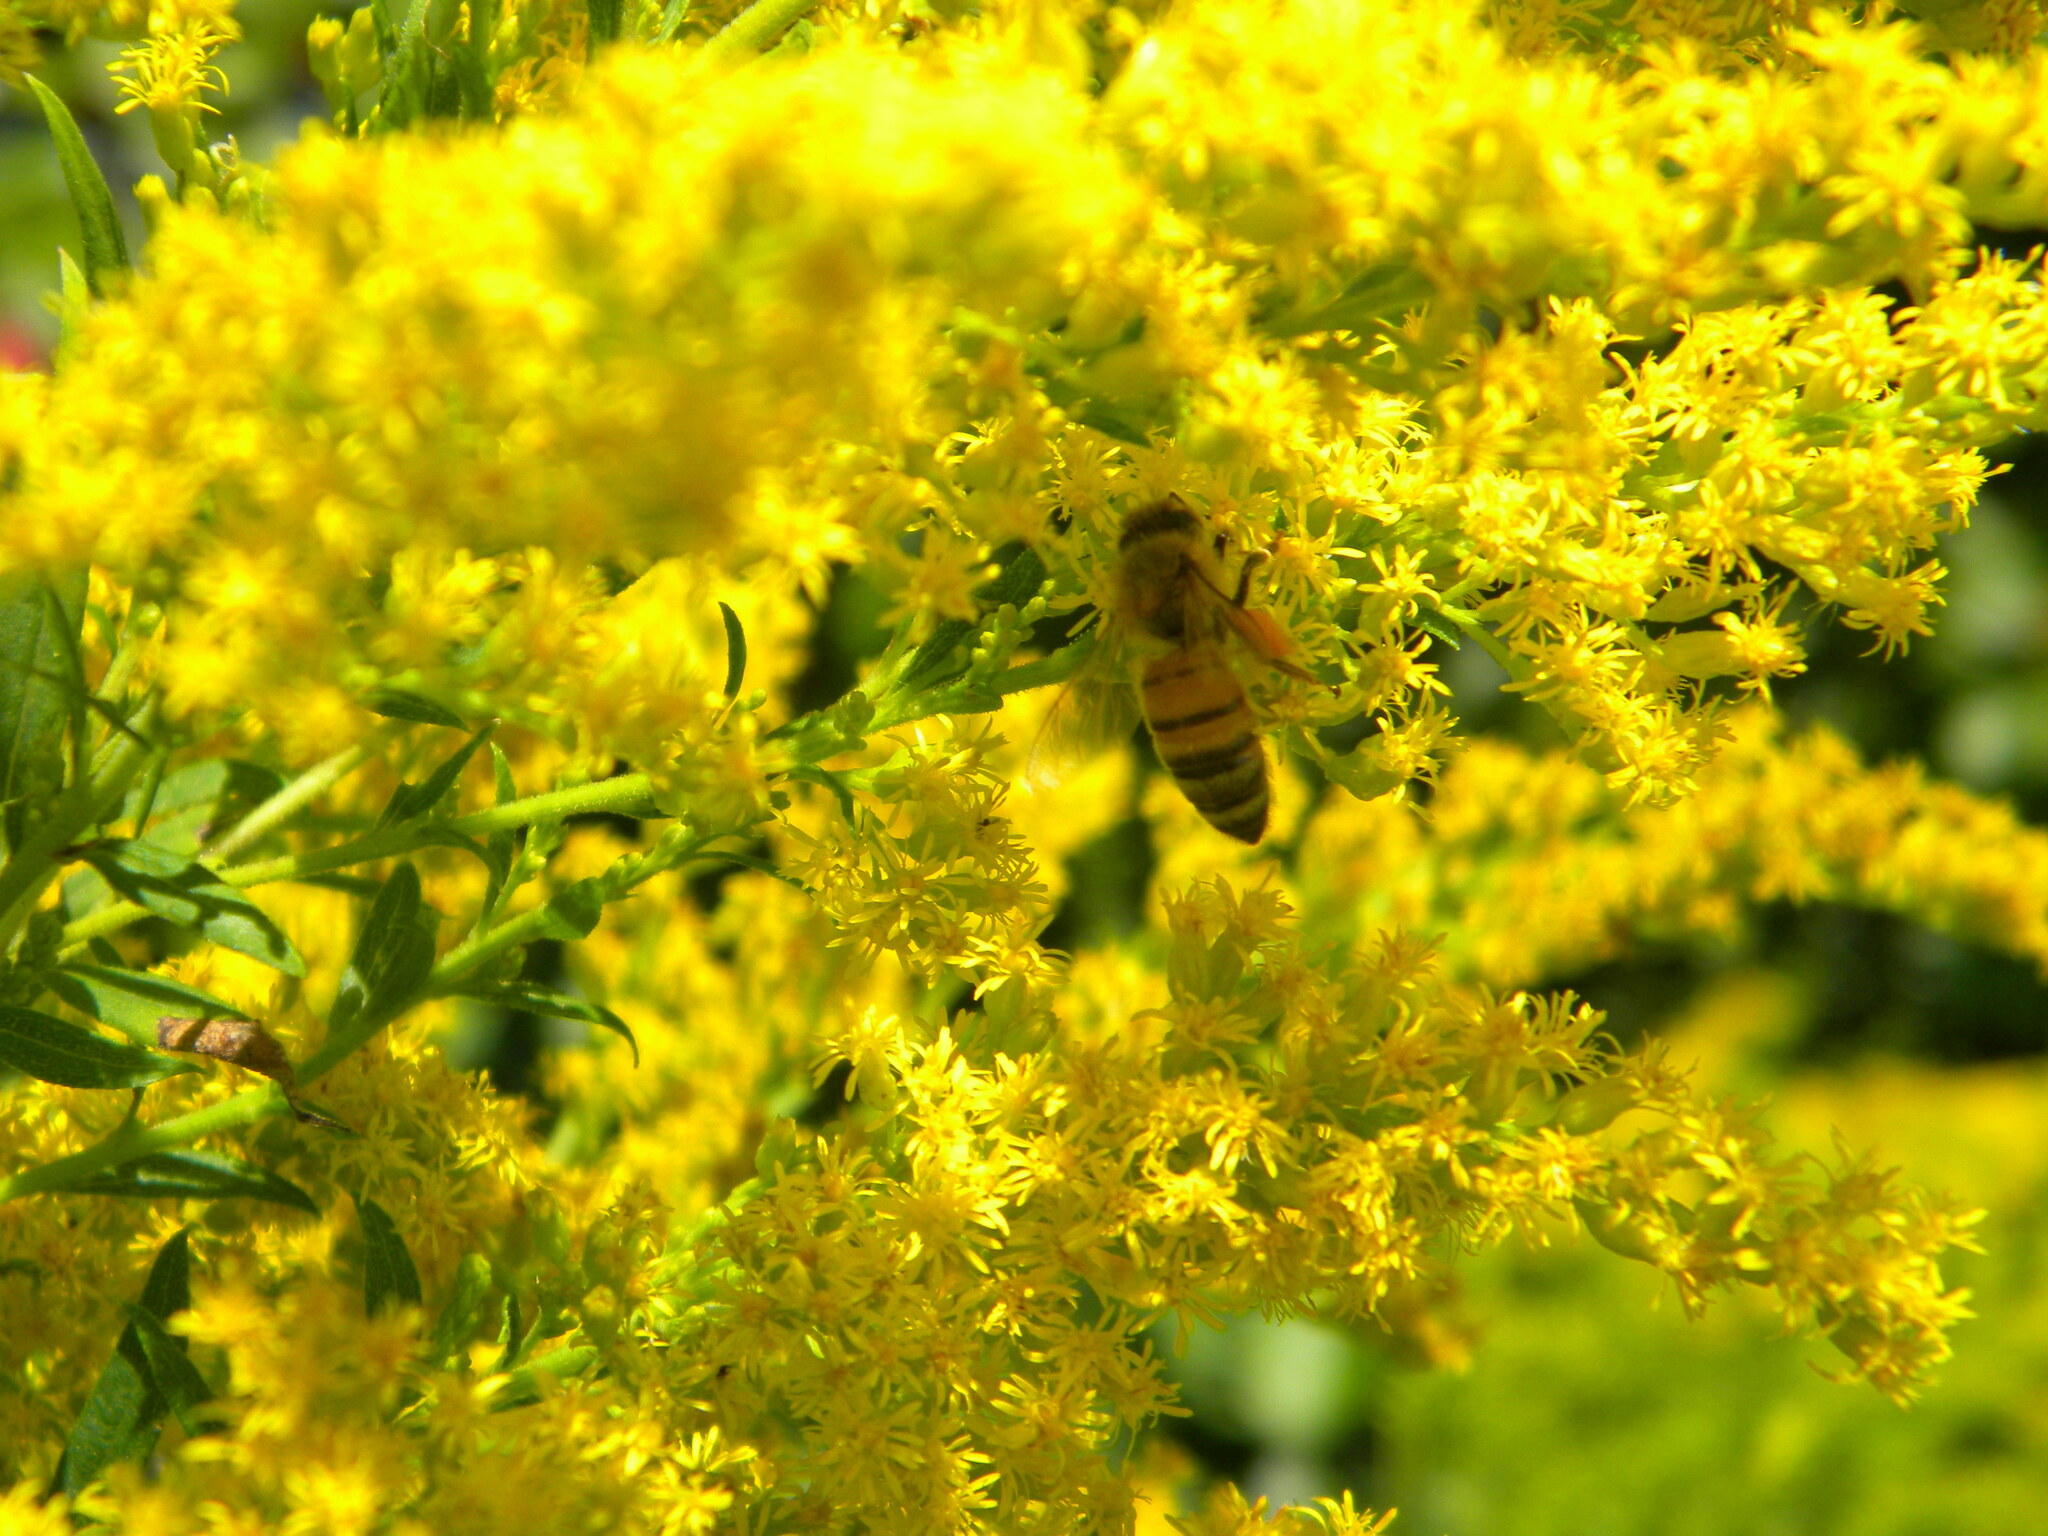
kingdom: Animalia
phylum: Arthropoda
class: Insecta
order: Hymenoptera
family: Apidae
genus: Apis
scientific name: Apis mellifera
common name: Honey bee
